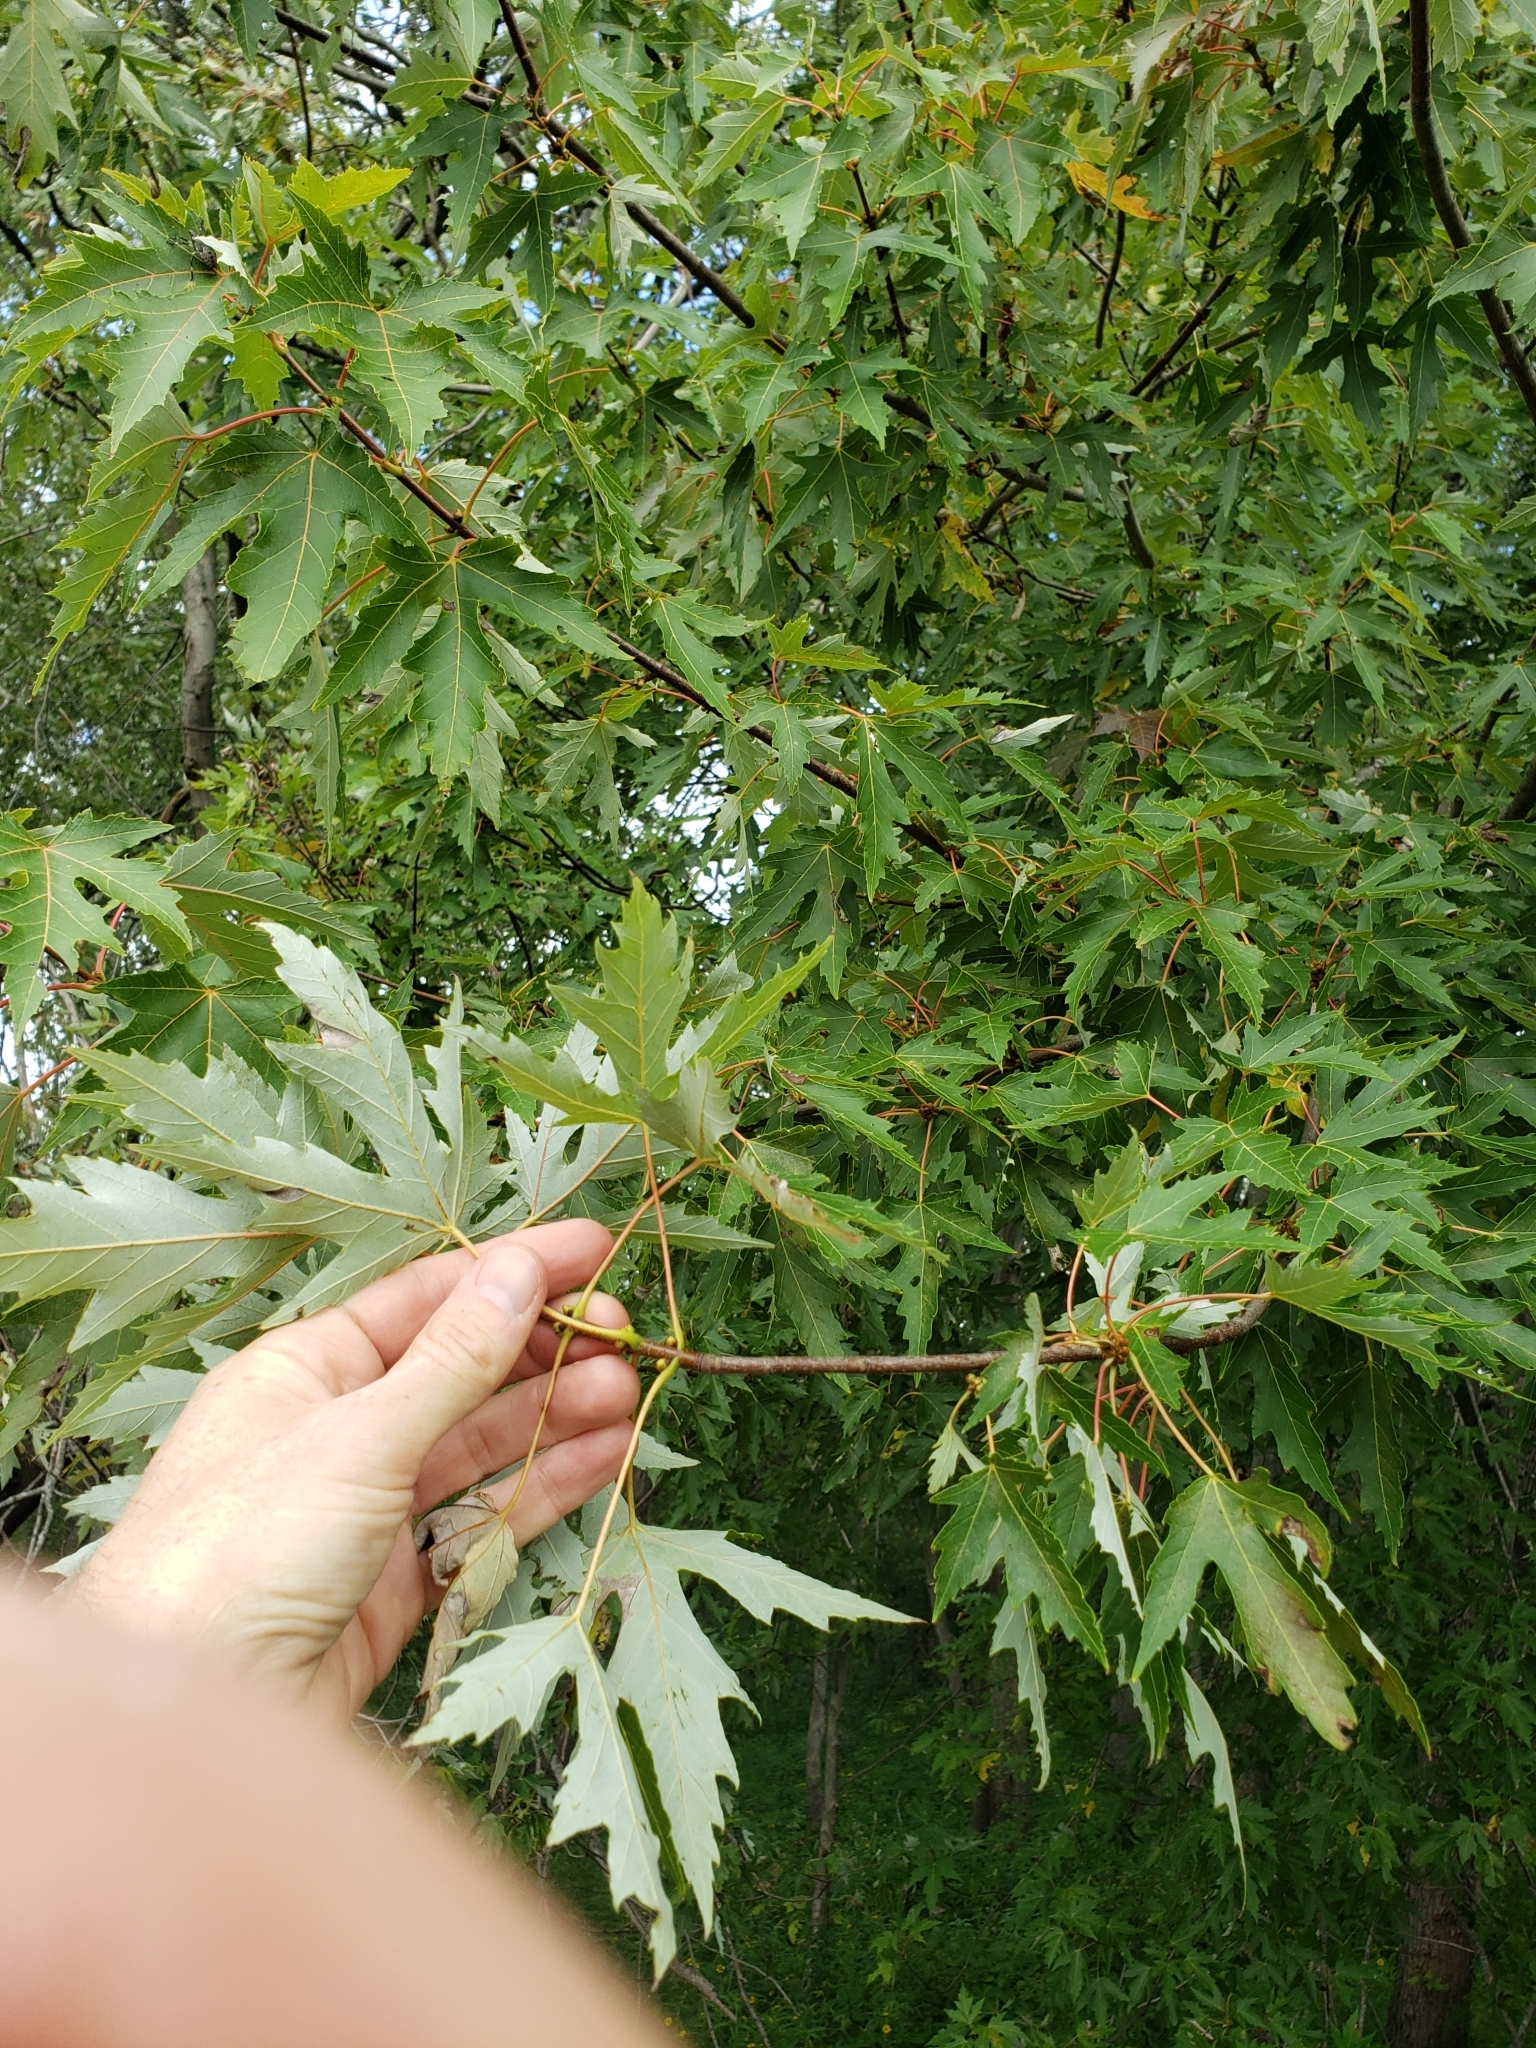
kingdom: Plantae
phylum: Tracheophyta
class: Magnoliopsida
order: Sapindales
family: Sapindaceae
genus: Acer
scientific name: Acer saccharinum
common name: Silver maple
